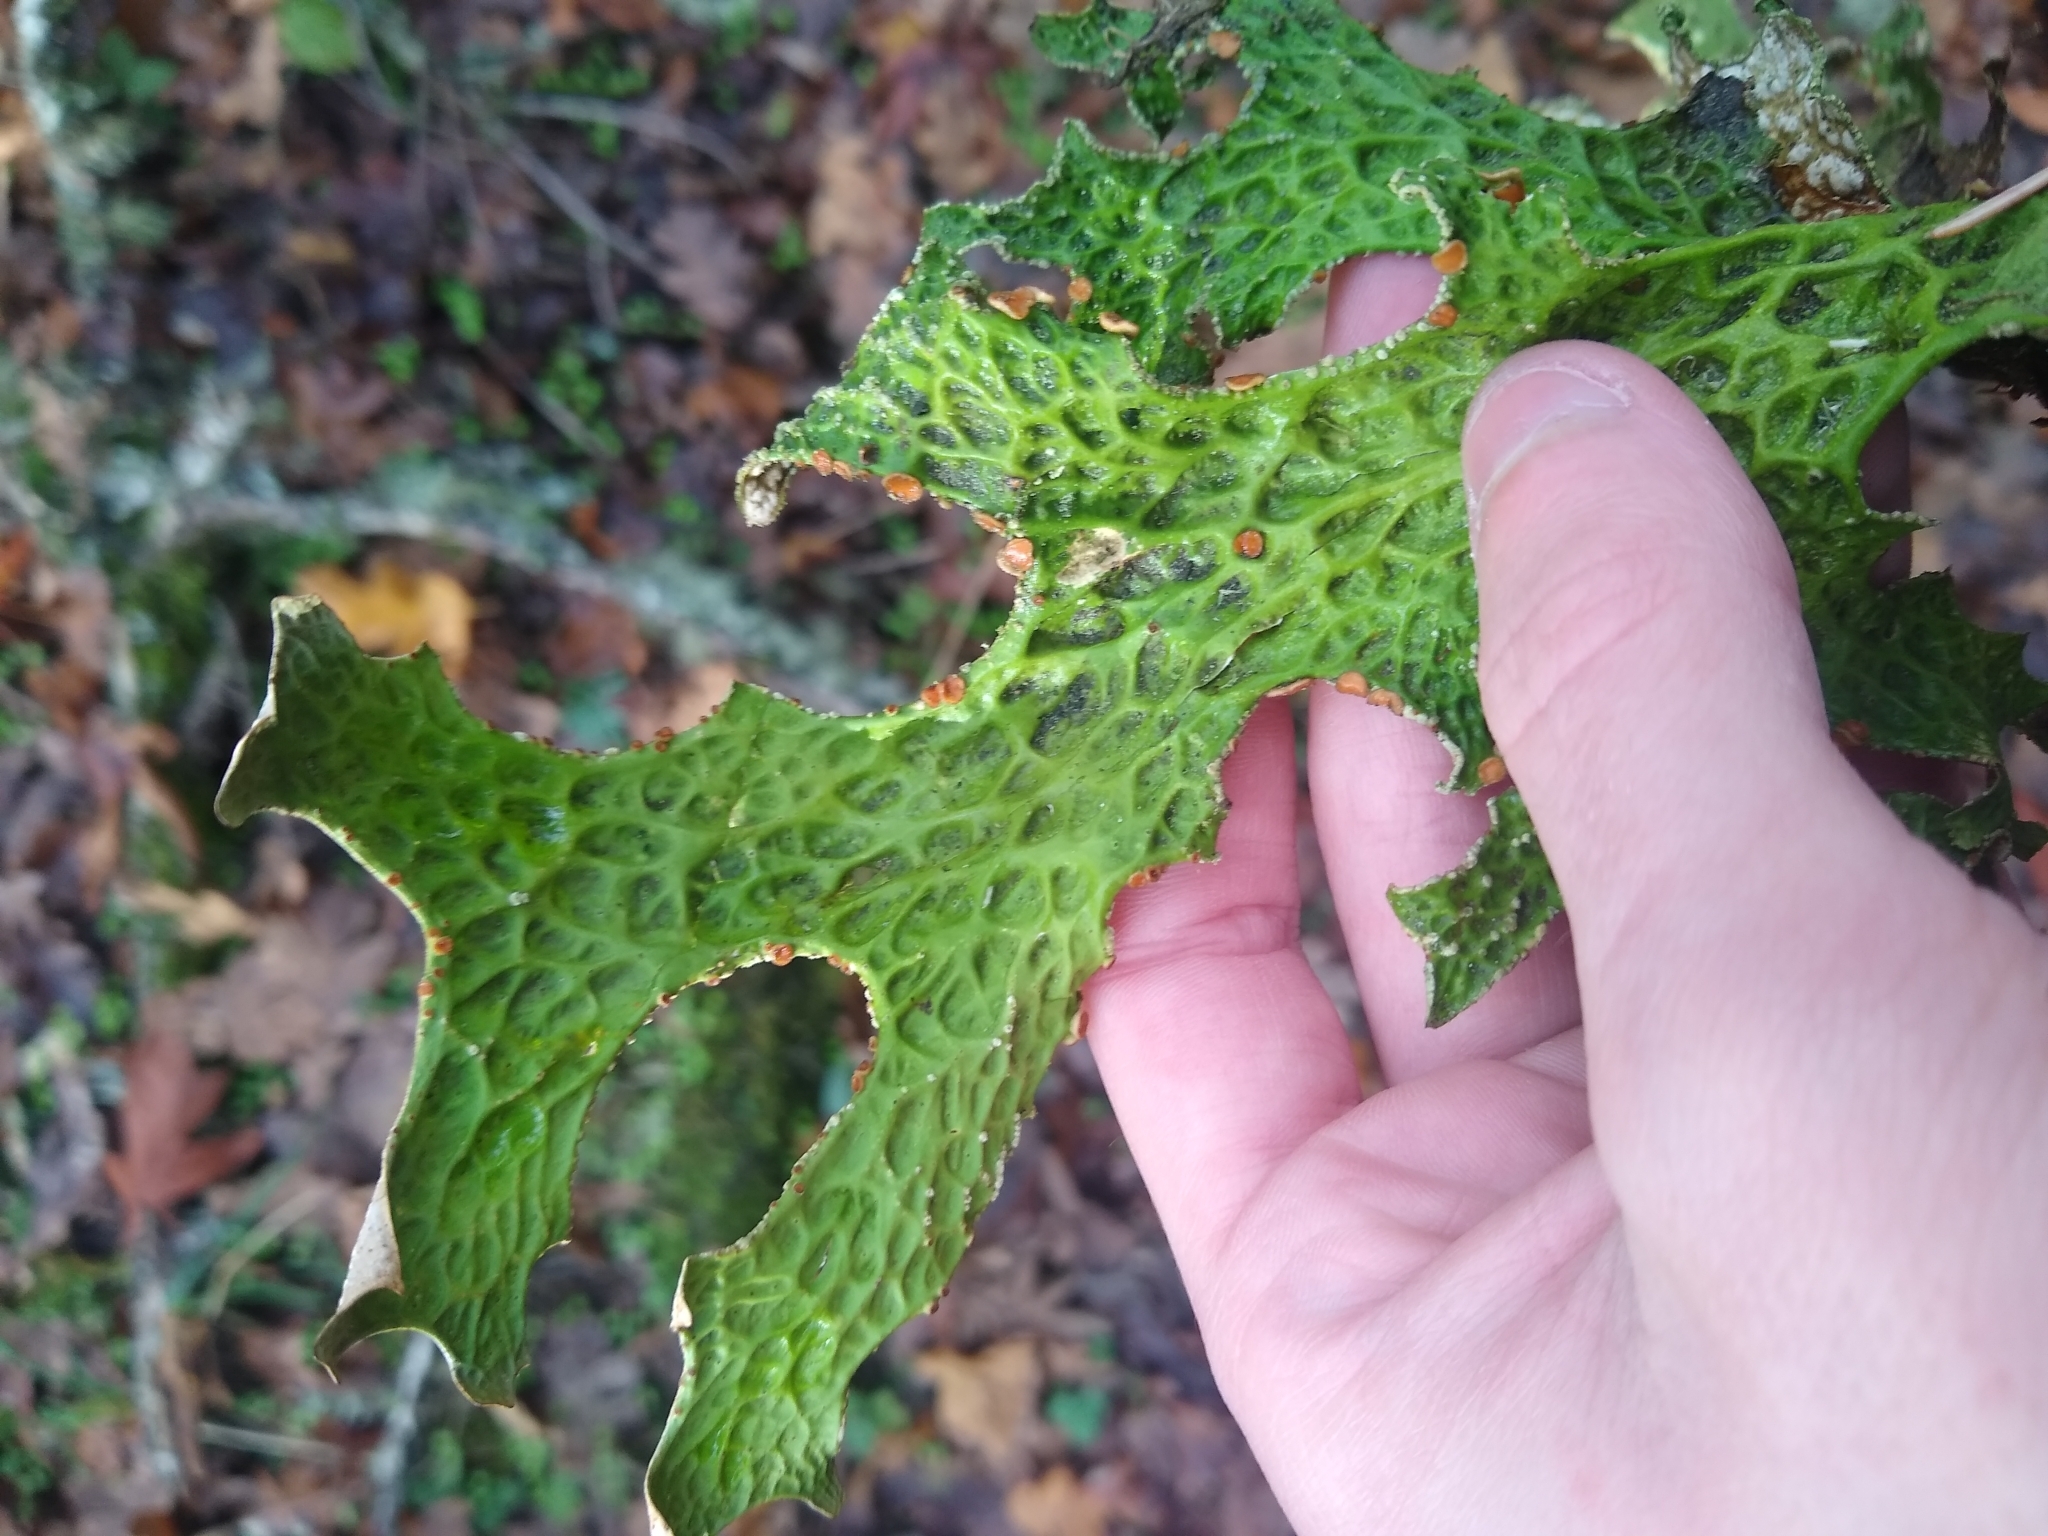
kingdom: Fungi
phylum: Ascomycota
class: Lecanoromycetes
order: Peltigerales
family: Lobariaceae
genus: Lobaria
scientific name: Lobaria pulmonaria
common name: Lungwort
